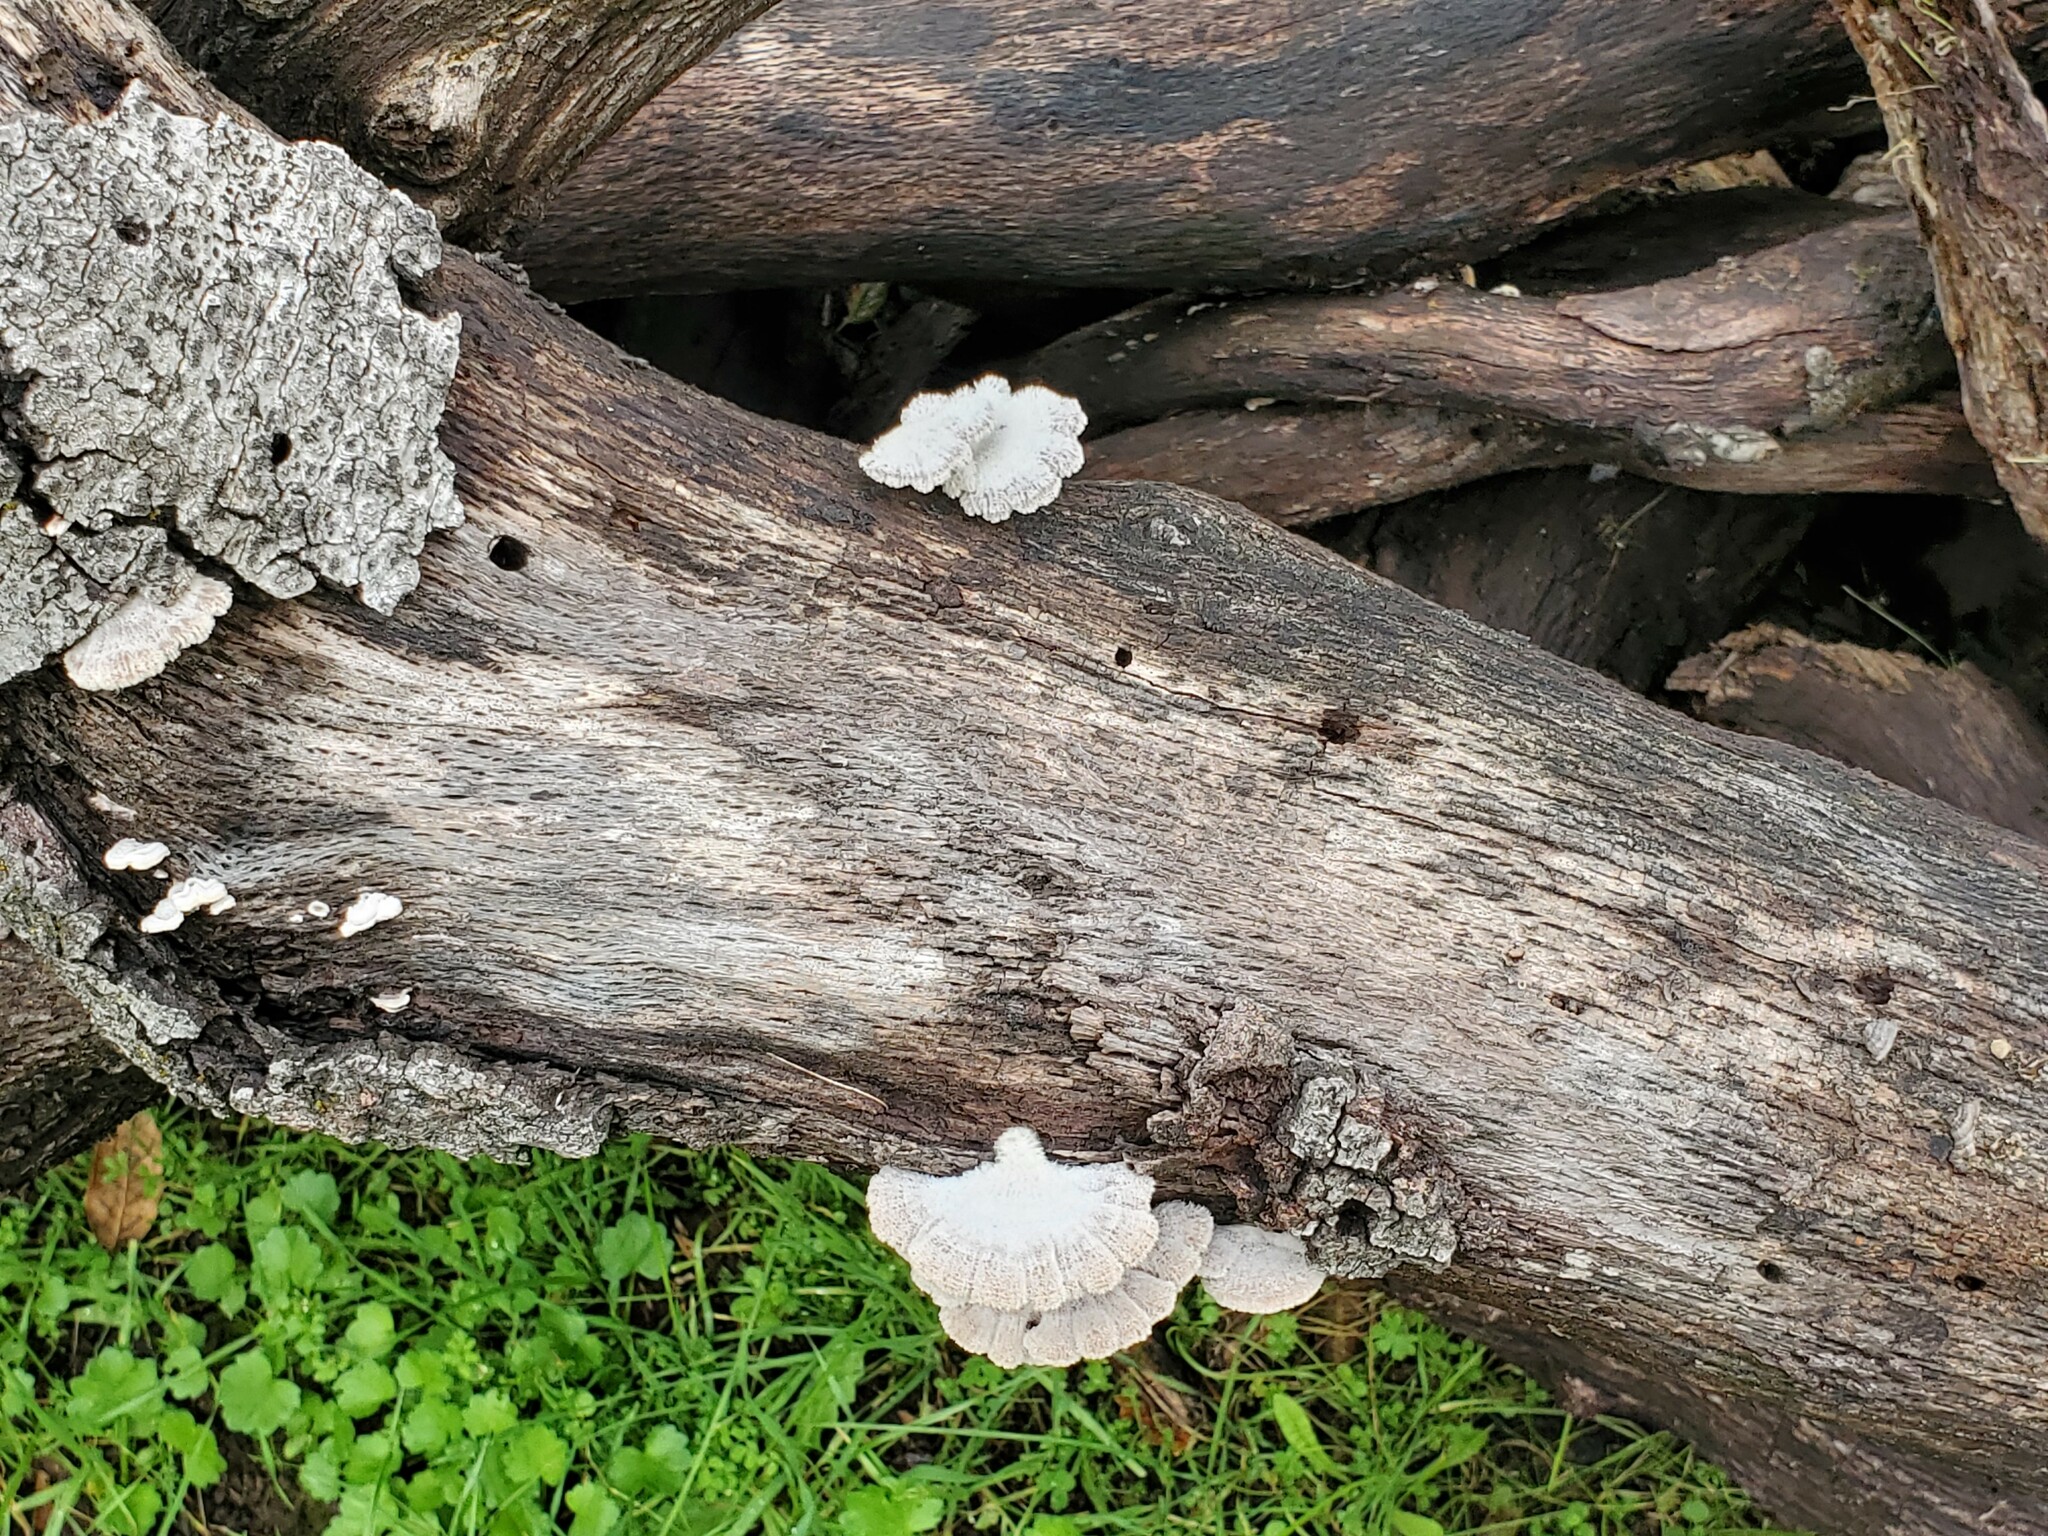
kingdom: Fungi
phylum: Basidiomycota
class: Agaricomycetes
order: Agaricales
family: Schizophyllaceae
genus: Schizophyllum
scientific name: Schizophyllum commune
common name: Common porecrust
